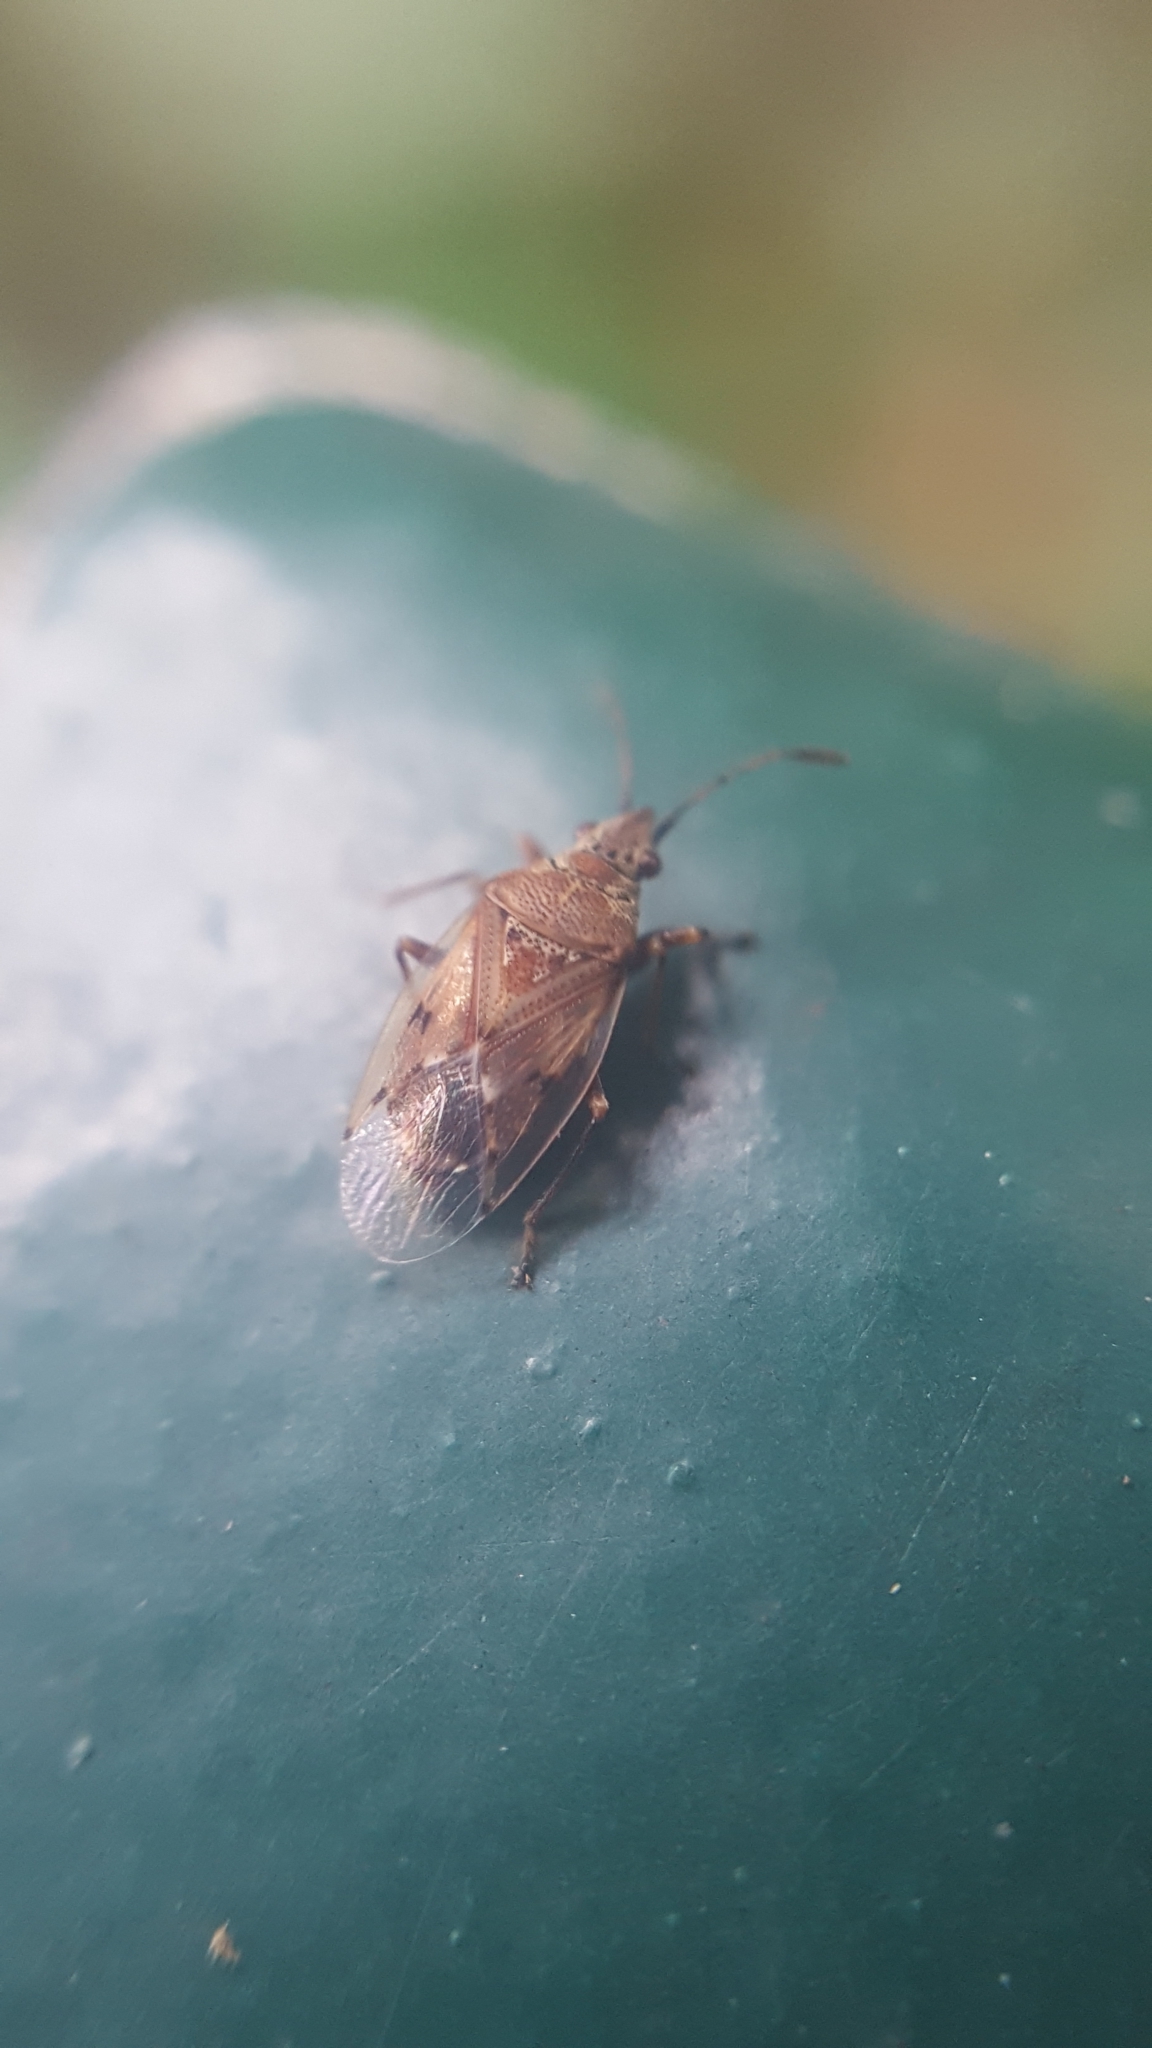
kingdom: Animalia
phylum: Arthropoda
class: Insecta
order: Hemiptera
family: Lygaeidae
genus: Kleidocerys
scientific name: Kleidocerys resedae
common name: Birch catkin bug
